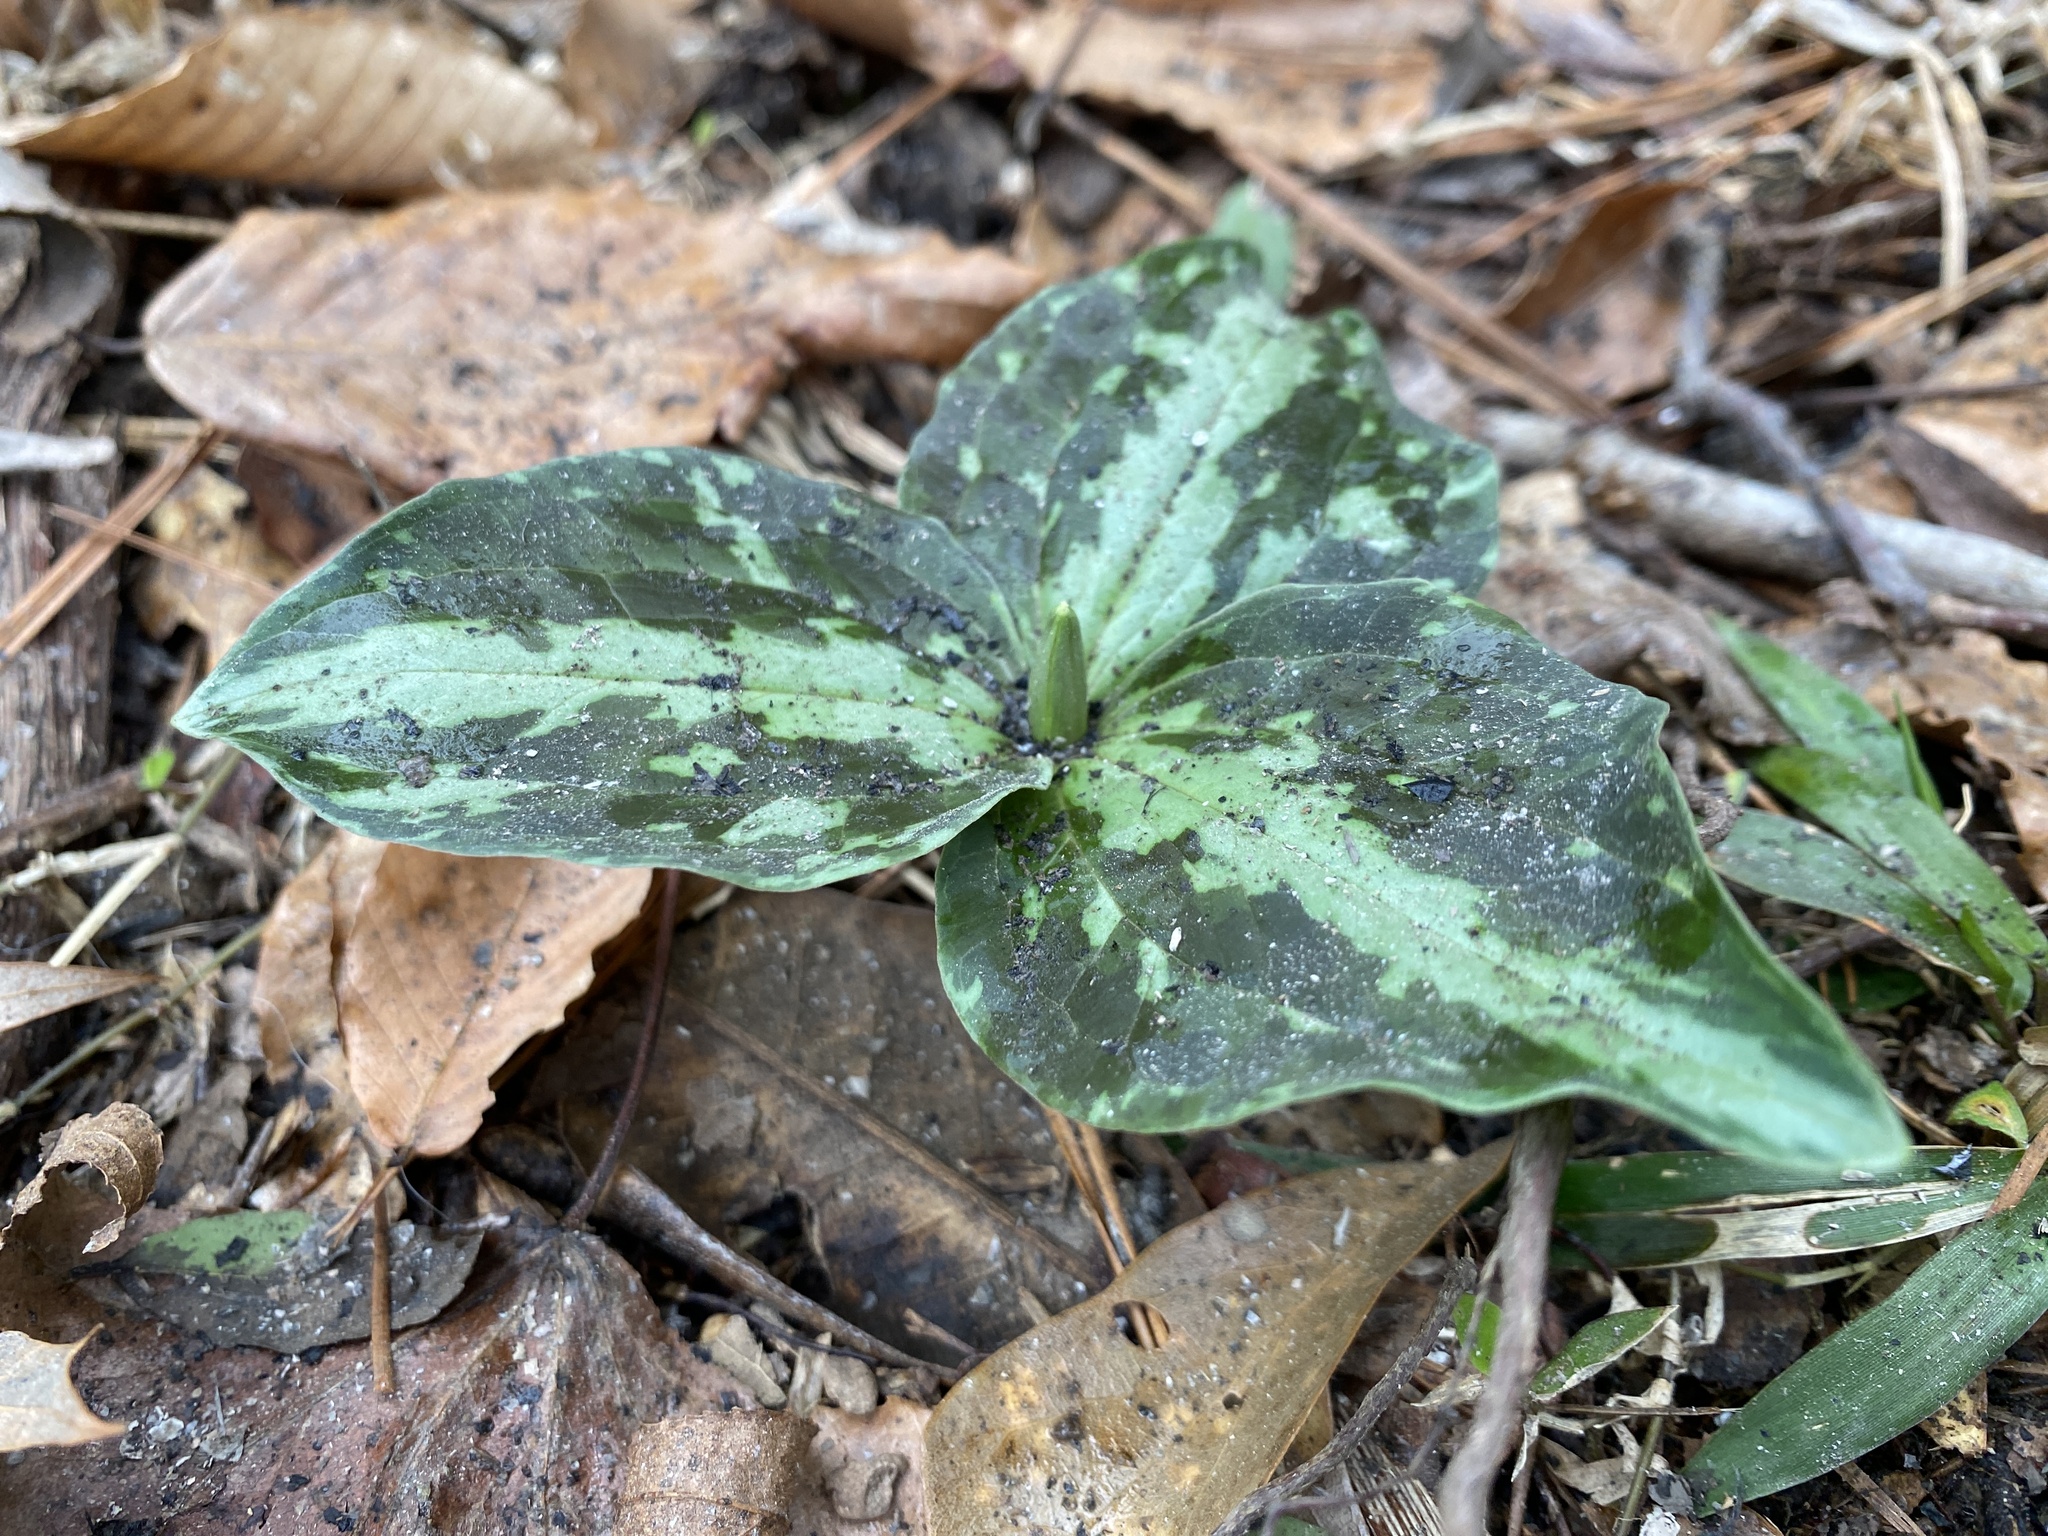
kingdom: Plantae
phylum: Tracheophyta
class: Liliopsida
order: Liliales
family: Melanthiaceae
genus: Trillium
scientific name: Trillium foetidissimum
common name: Mississippi river trillium
